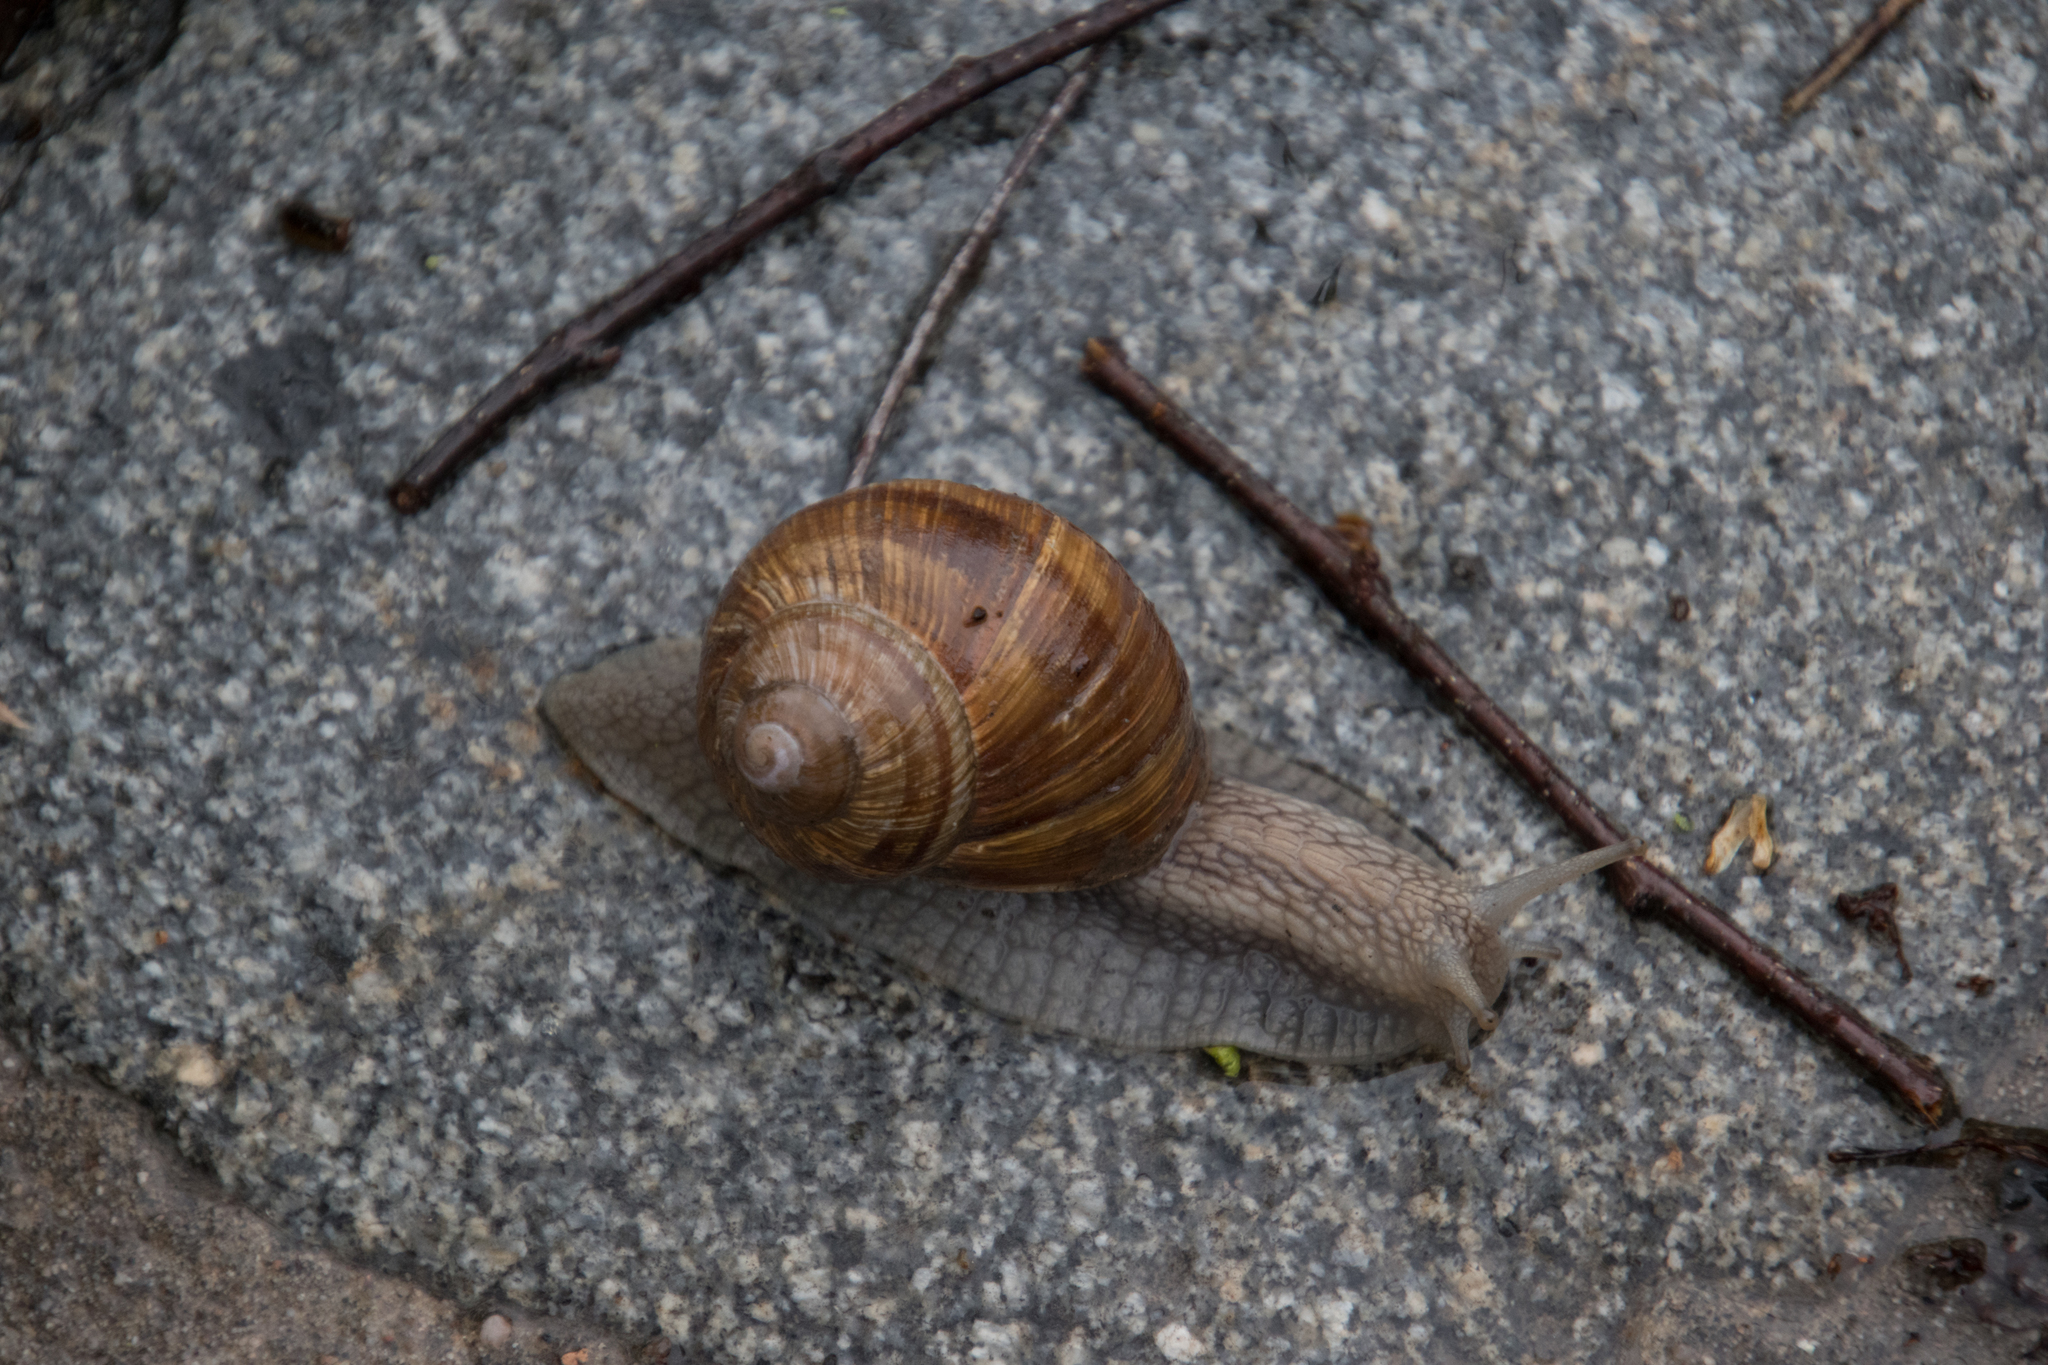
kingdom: Animalia
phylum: Mollusca
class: Gastropoda
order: Stylommatophora
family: Helicidae
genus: Helix
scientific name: Helix pomatia
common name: Roman snail
